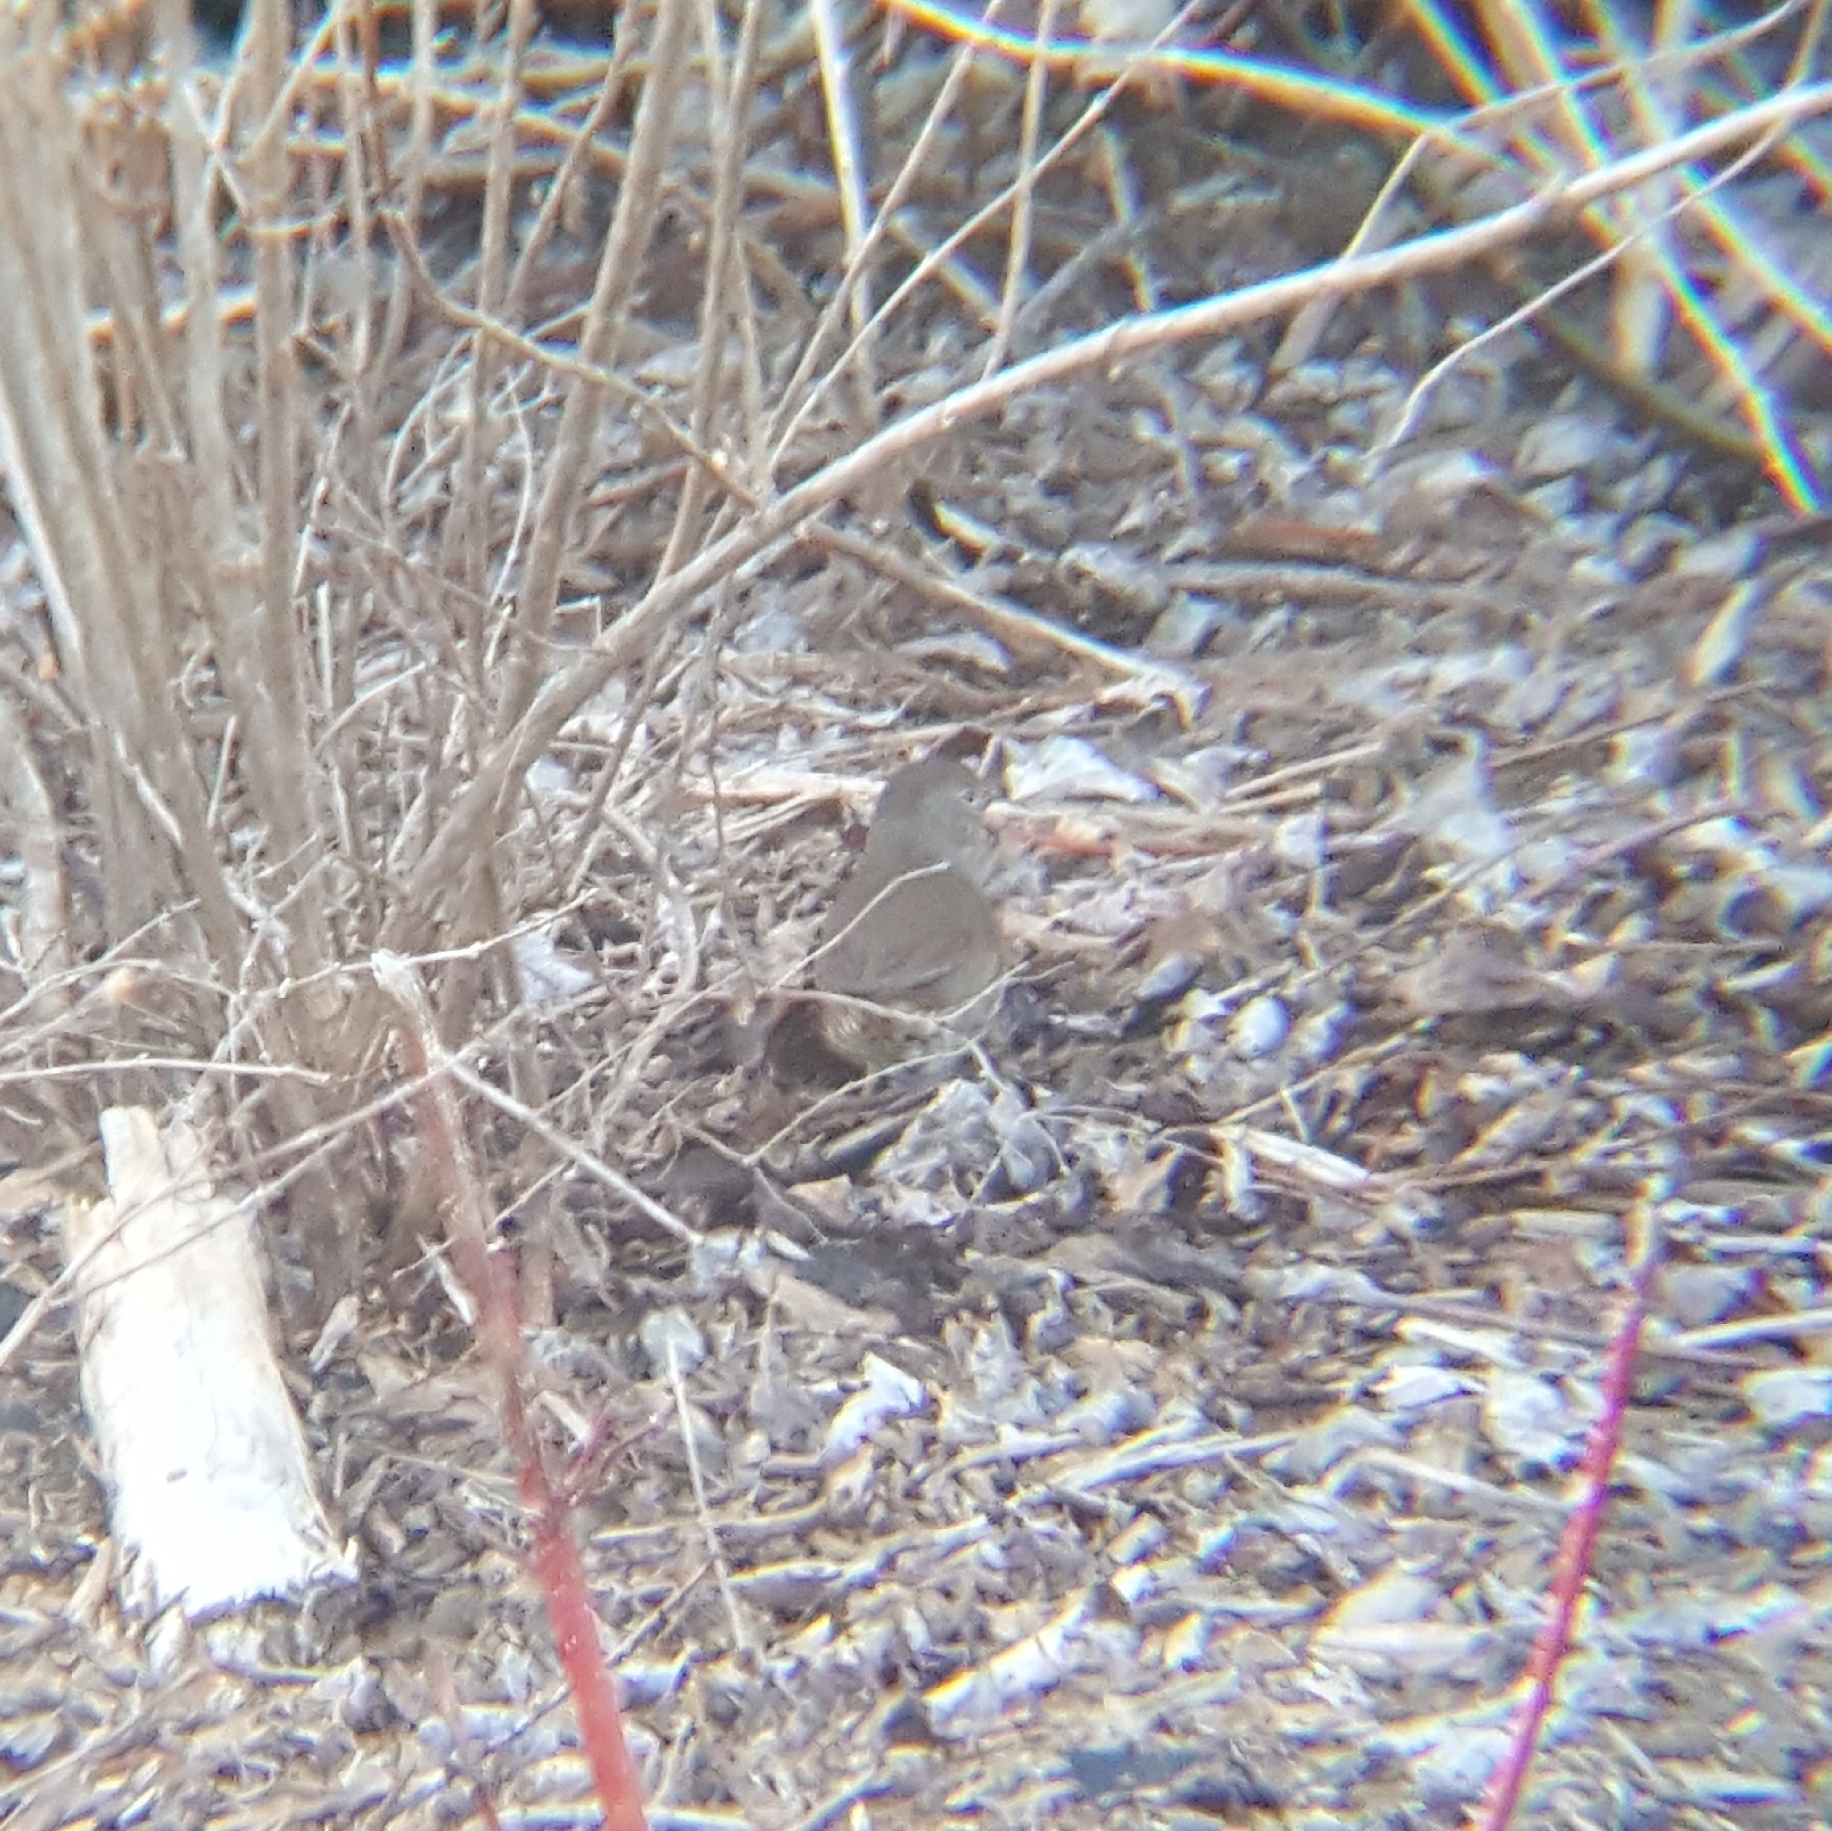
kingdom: Animalia
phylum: Chordata
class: Aves
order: Passeriformes
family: Passerellidae
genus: Passerella
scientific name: Passerella iliaca
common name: Fox sparrow
